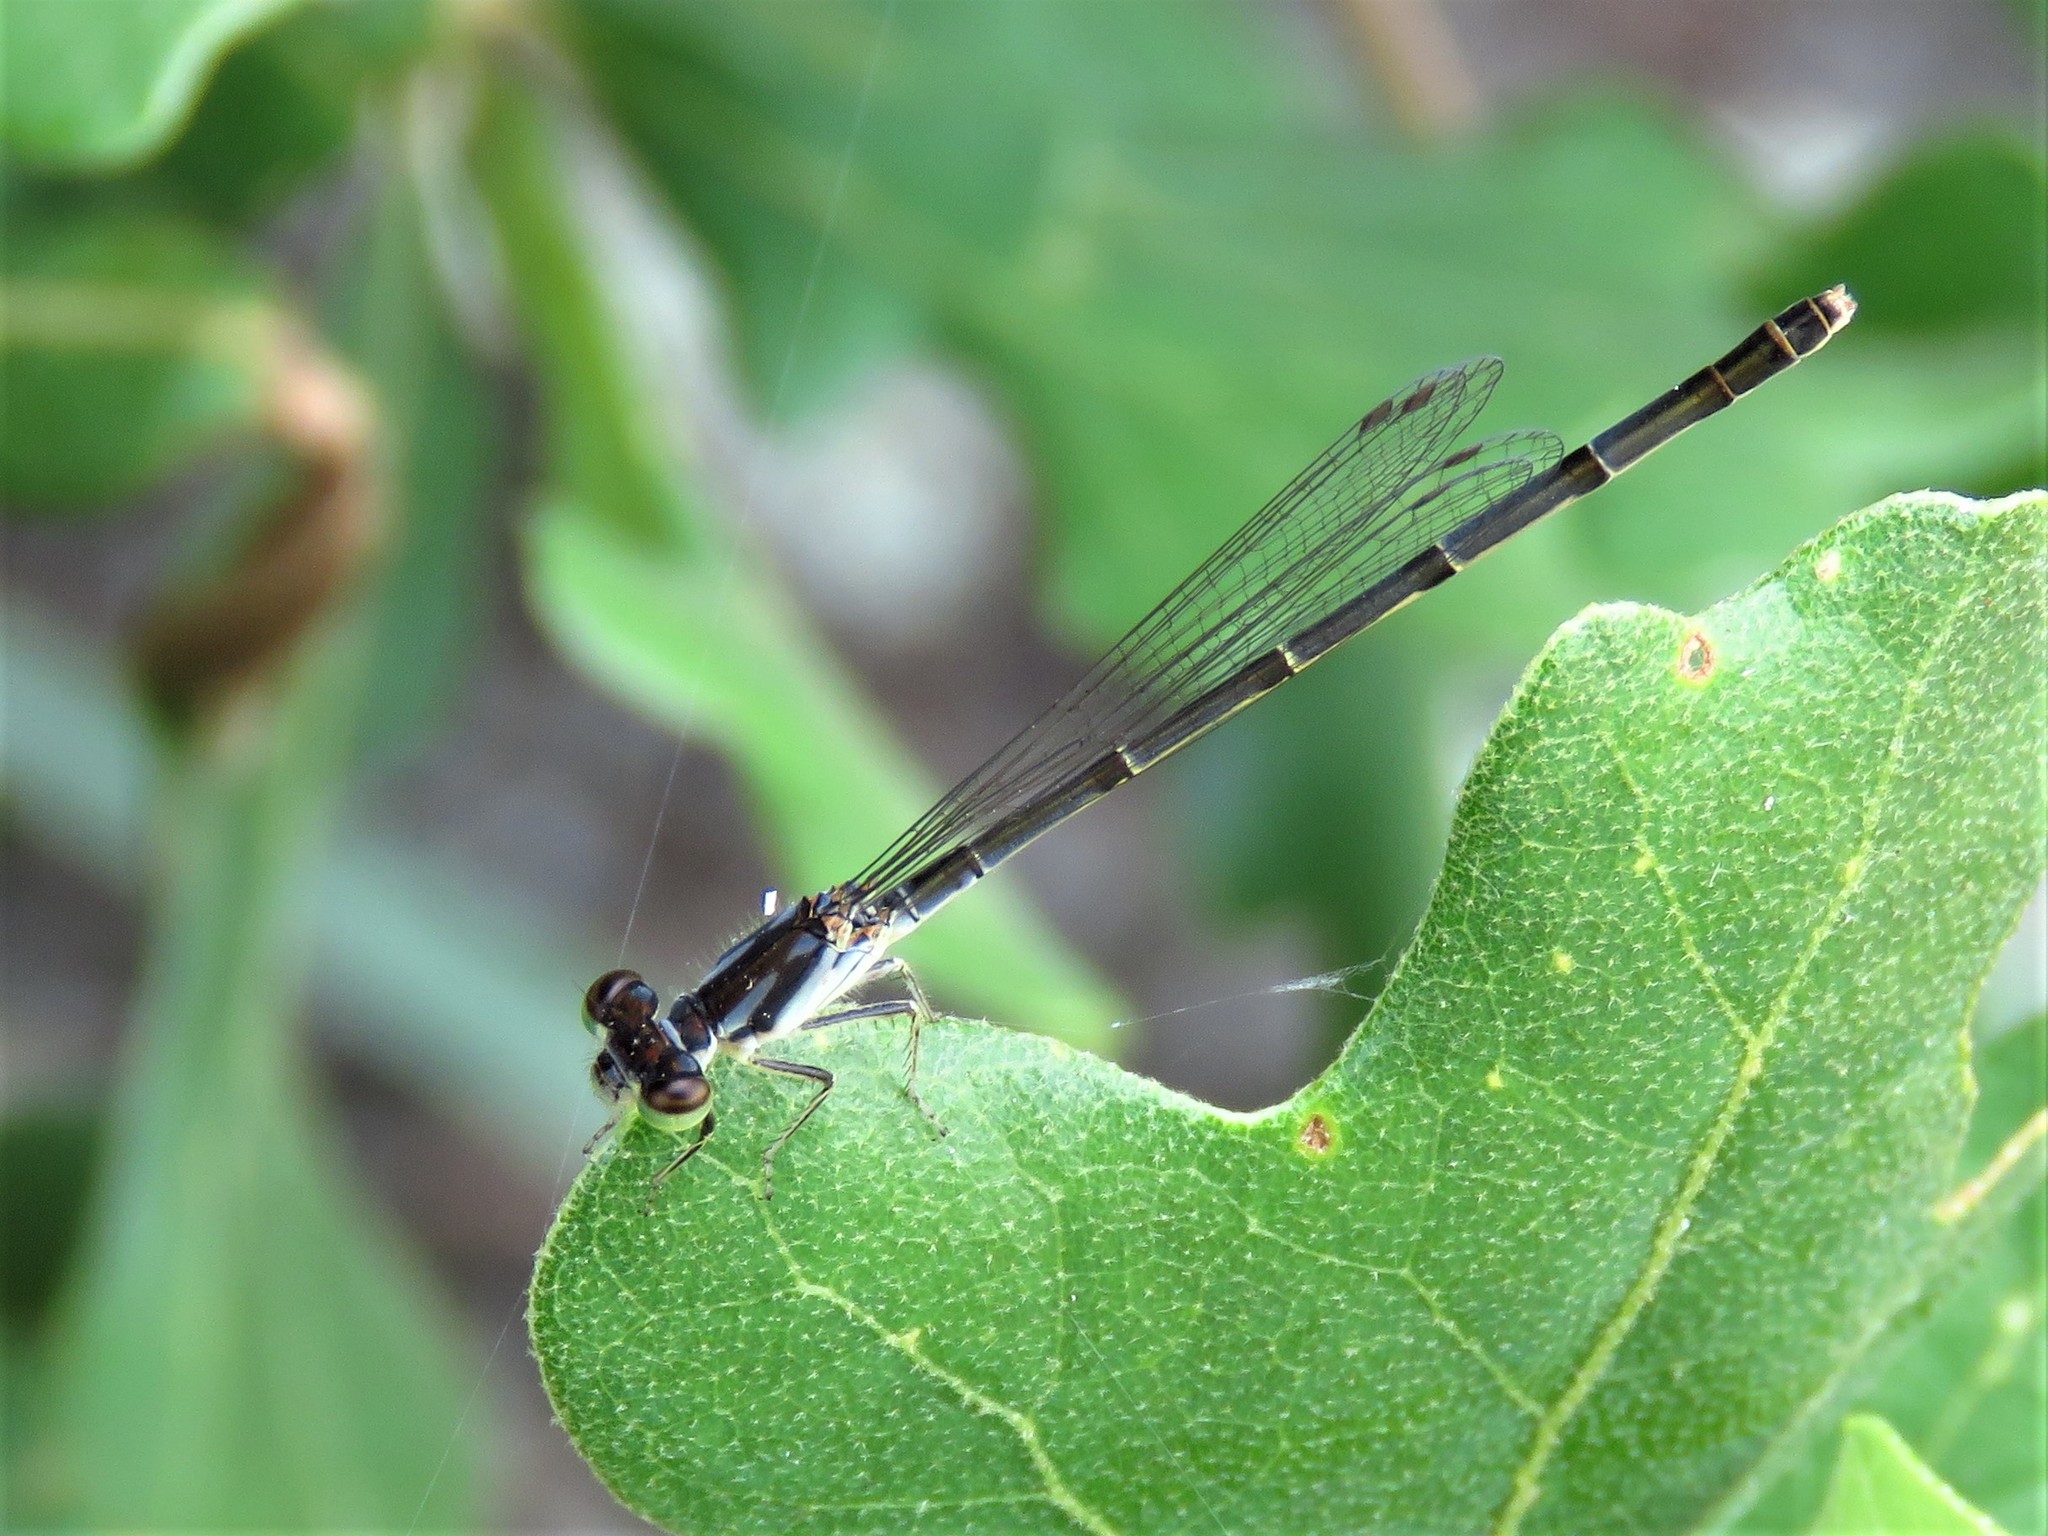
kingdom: Animalia
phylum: Arthropoda
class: Insecta
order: Odonata
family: Coenagrionidae
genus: Ischnura
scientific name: Ischnura posita
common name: Fragile forktail
